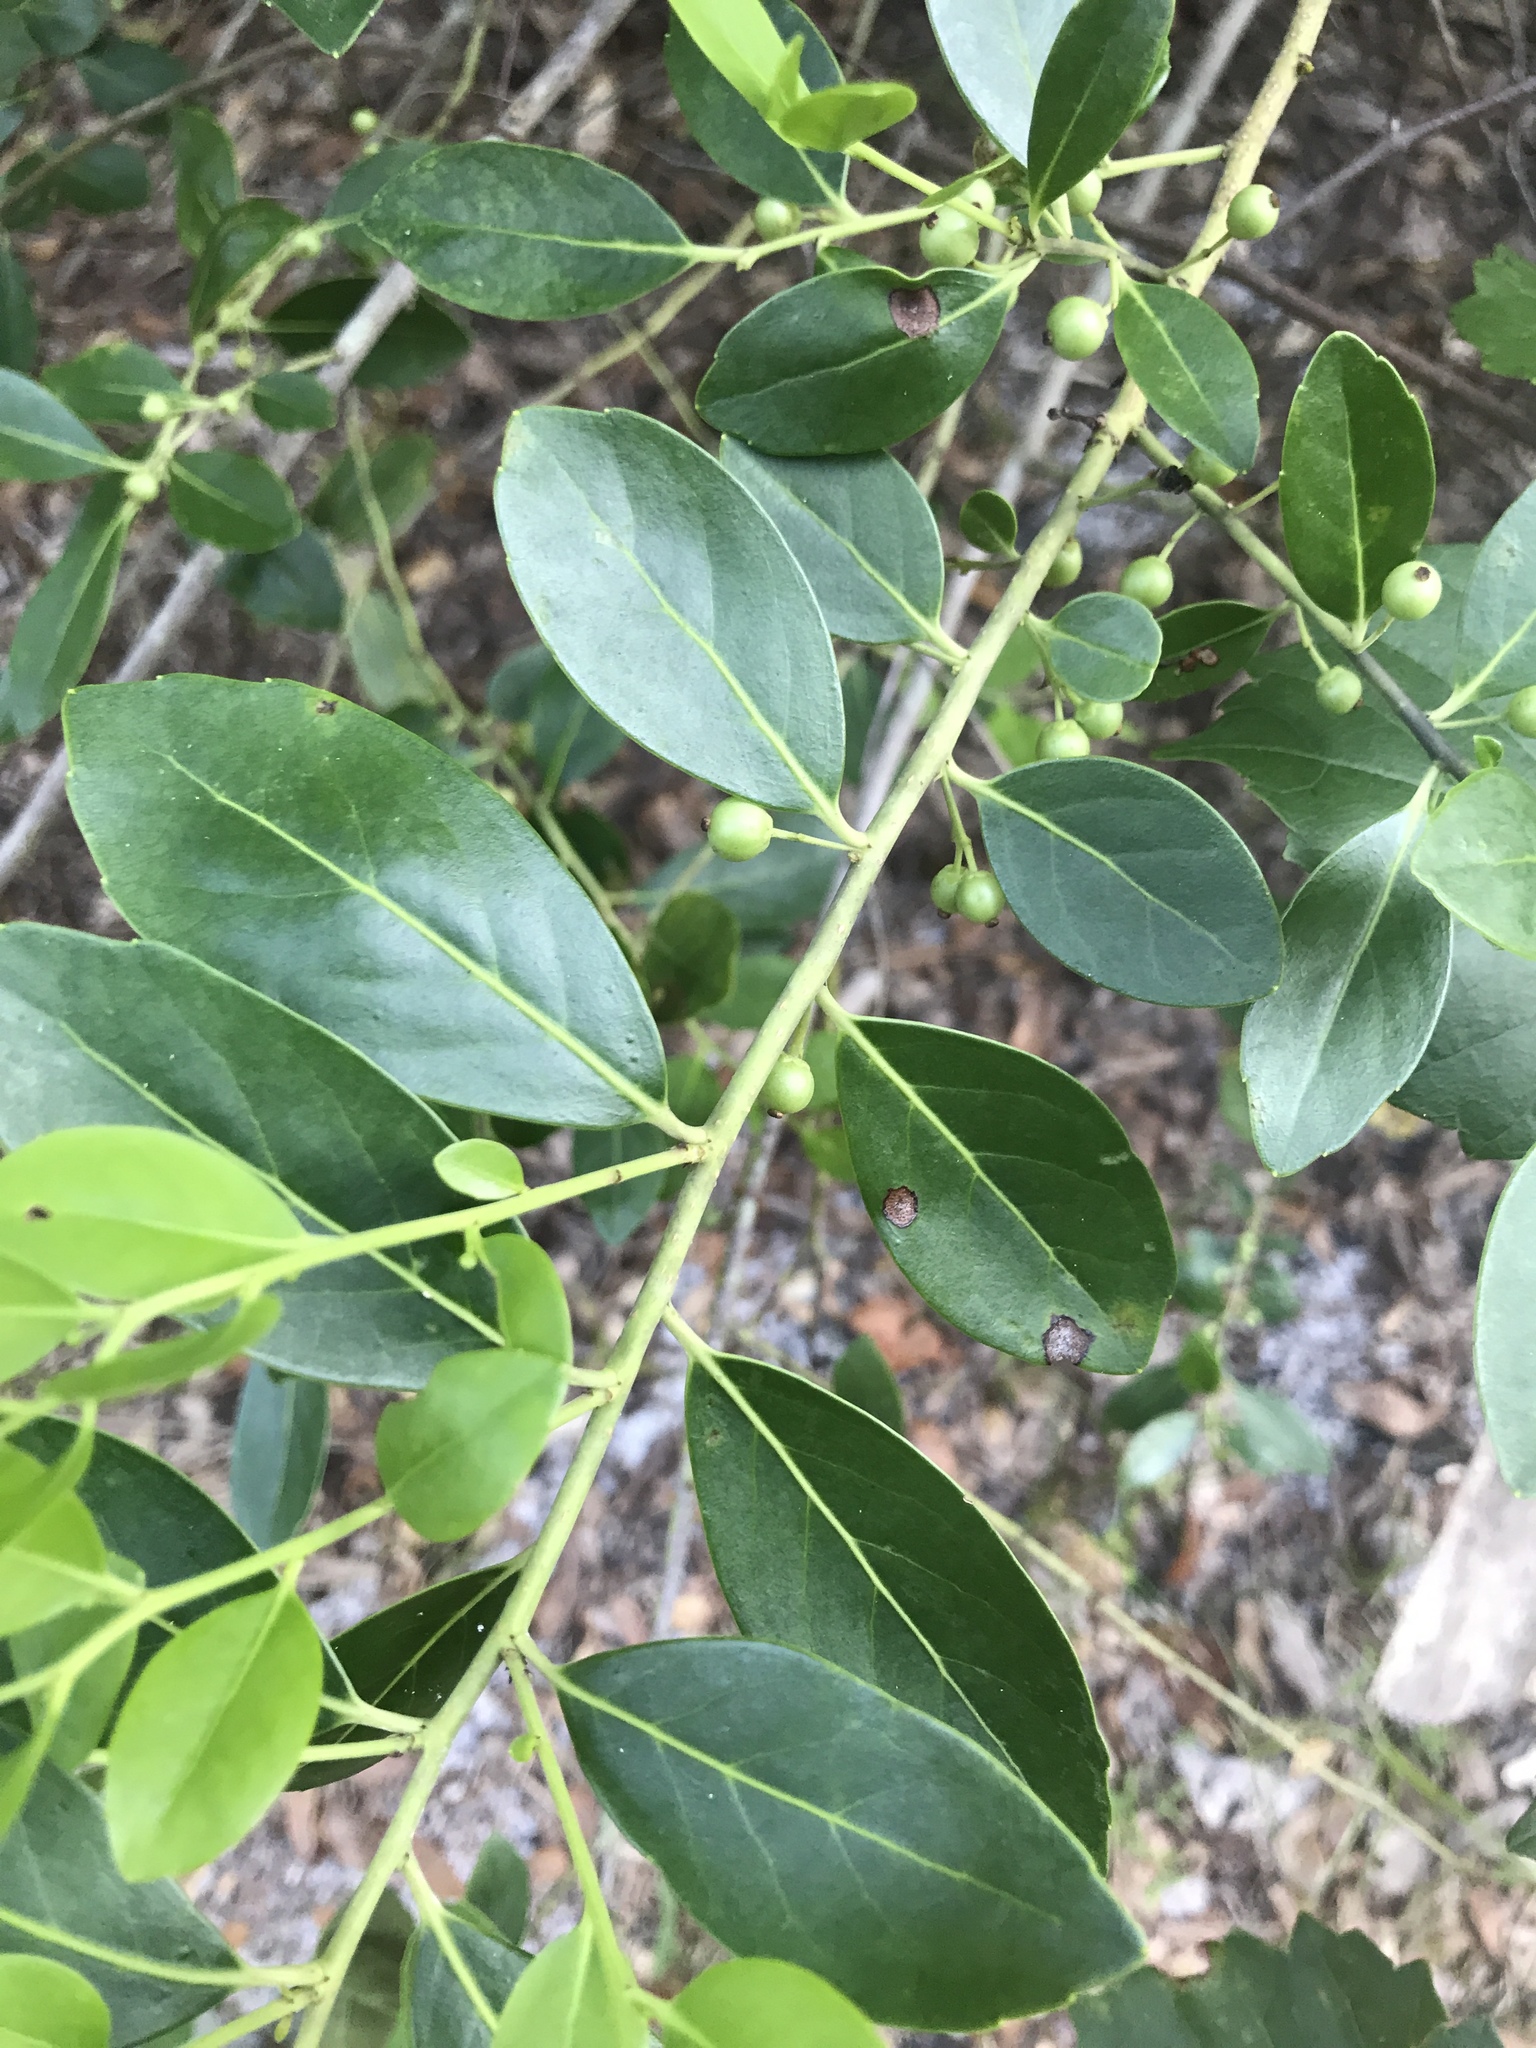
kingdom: Plantae
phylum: Tracheophyta
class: Magnoliopsida
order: Aquifoliales
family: Aquifoliaceae
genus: Ilex
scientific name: Ilex glabra
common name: Bitter gallberry
